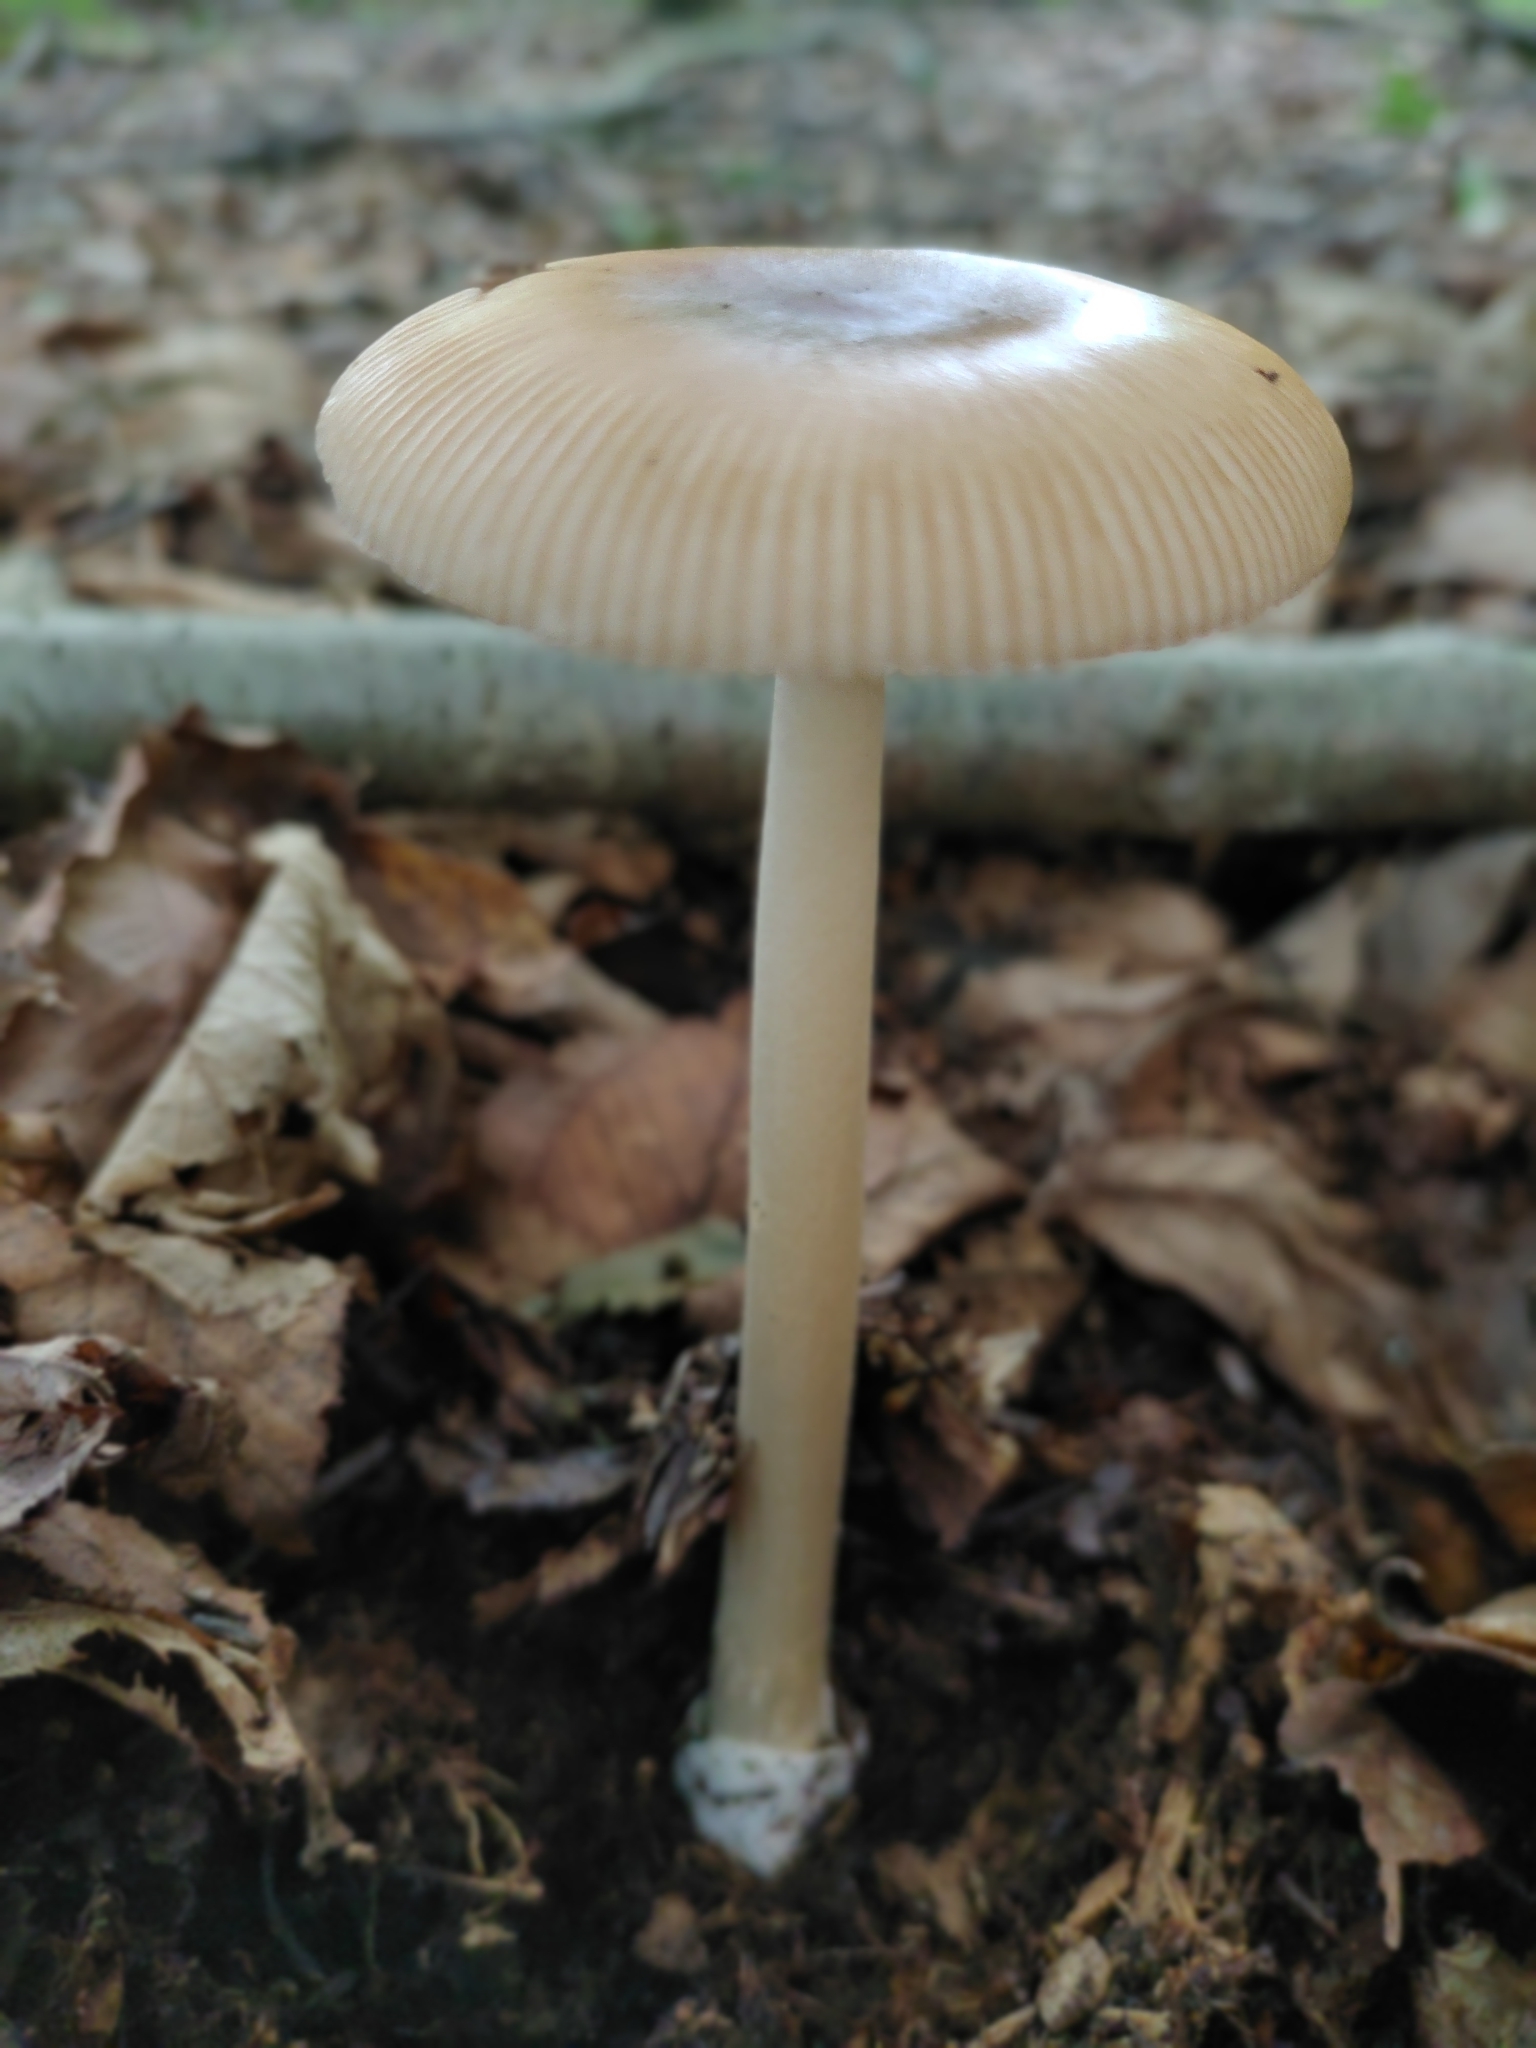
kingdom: Fungi
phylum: Basidiomycota
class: Agaricomycetes
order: Agaricales
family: Amanitaceae
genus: Amanita
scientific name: Amanita fulva
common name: Tawny grisette
